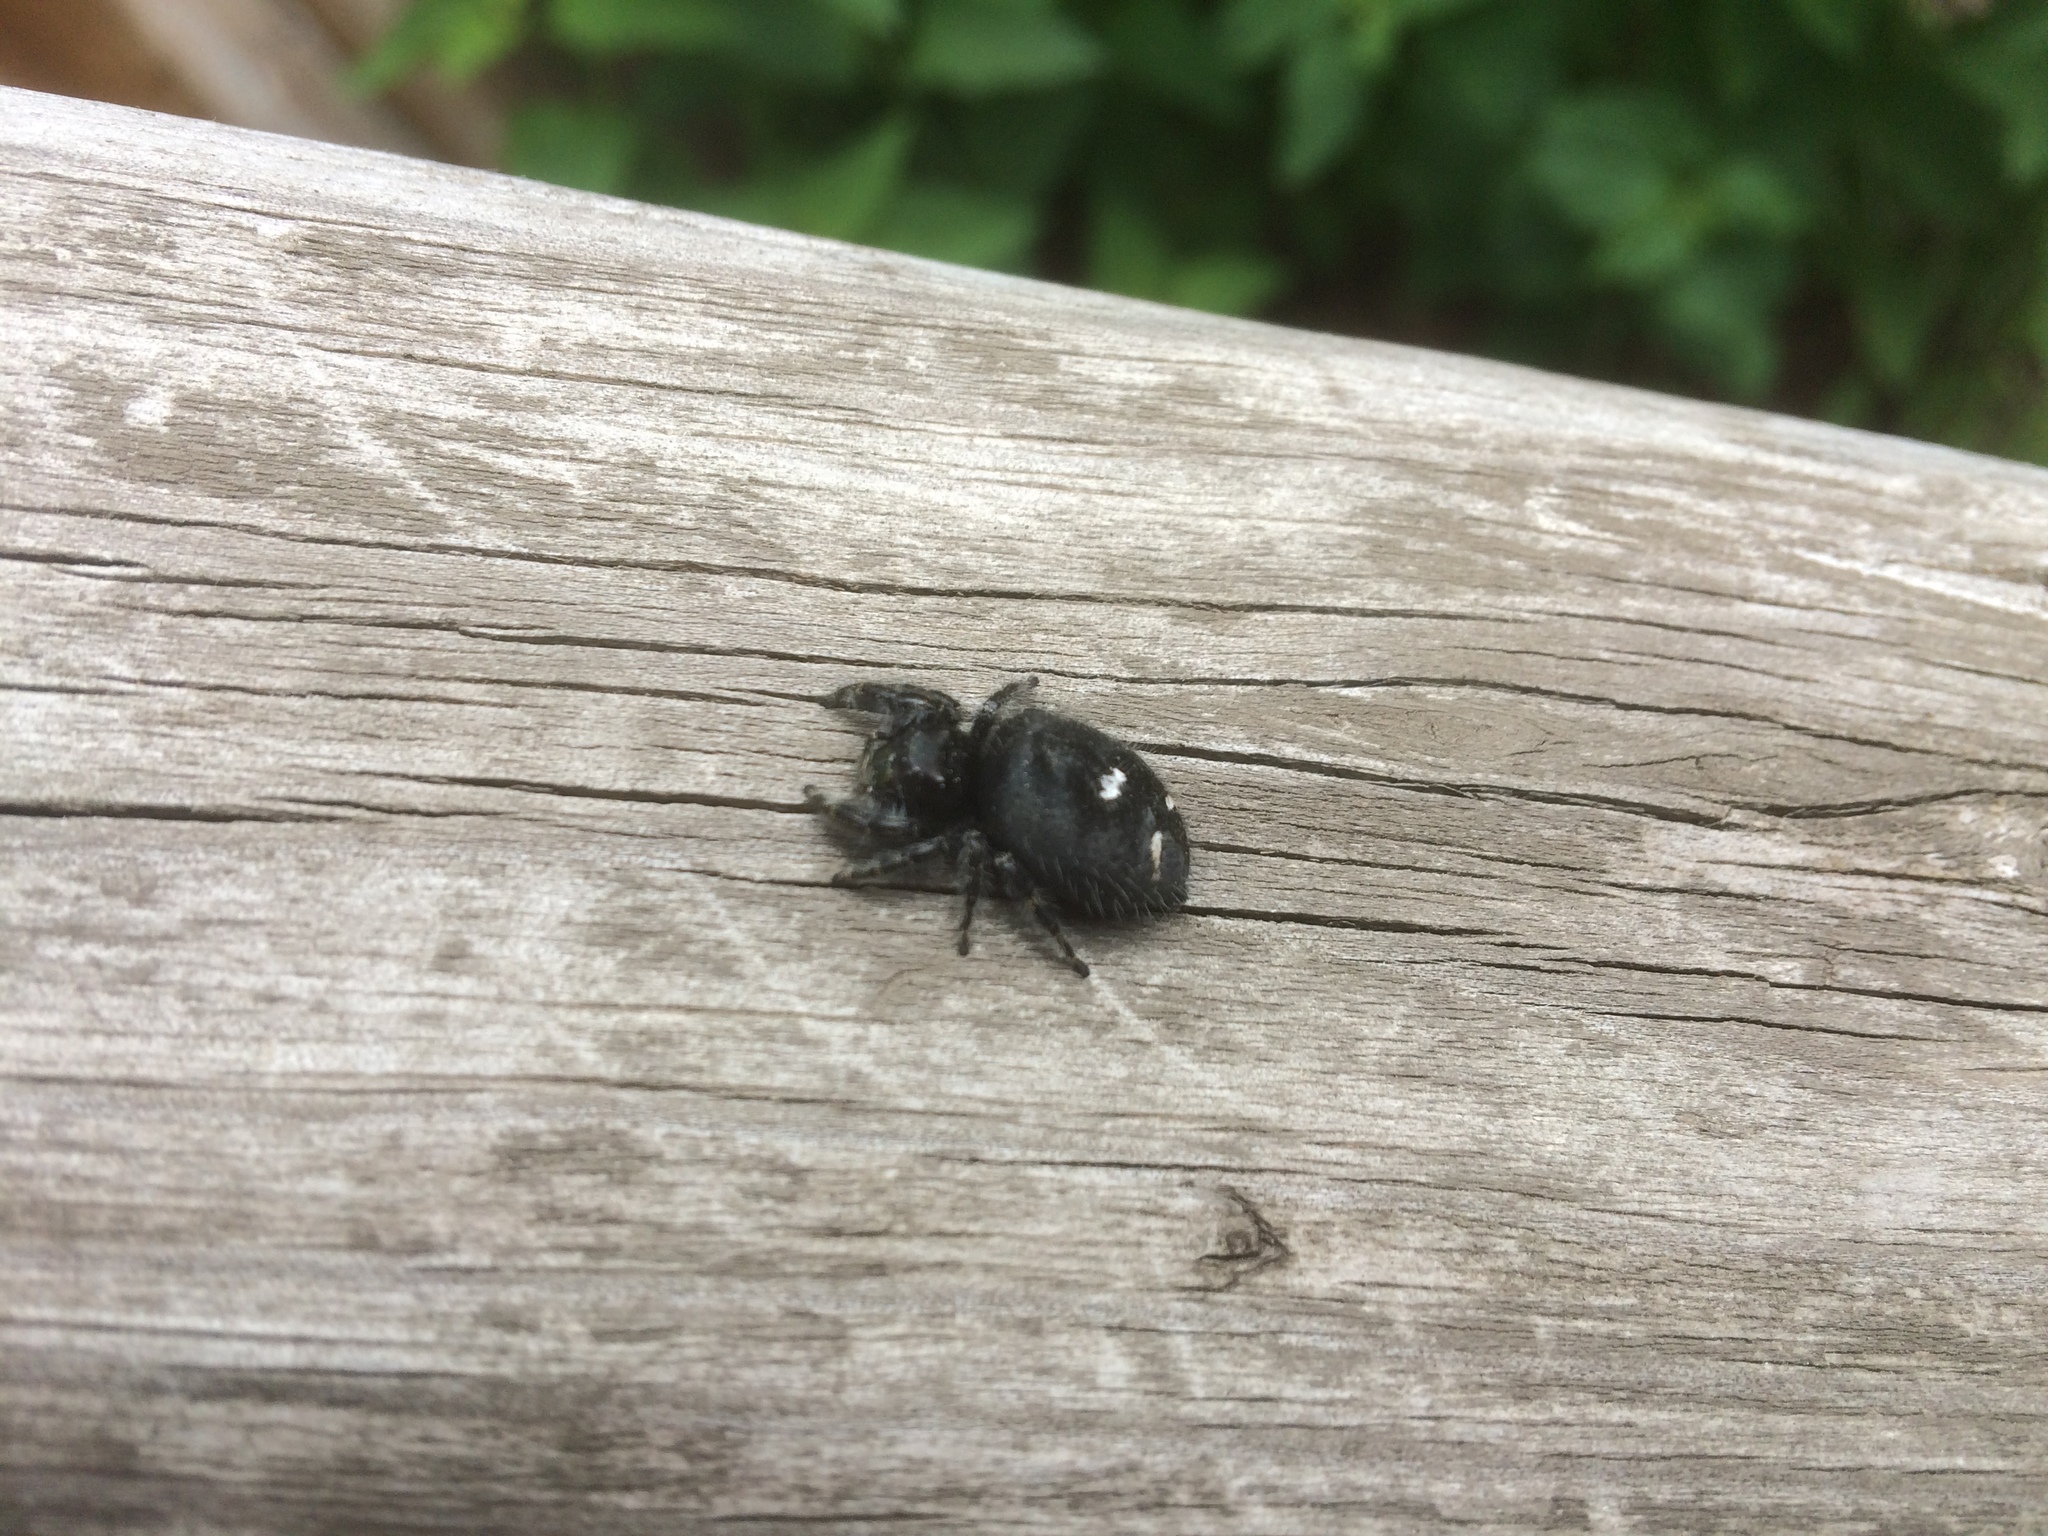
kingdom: Animalia
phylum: Arthropoda
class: Arachnida
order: Araneae
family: Salticidae
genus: Phidippus
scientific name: Phidippus audax
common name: Bold jumper
